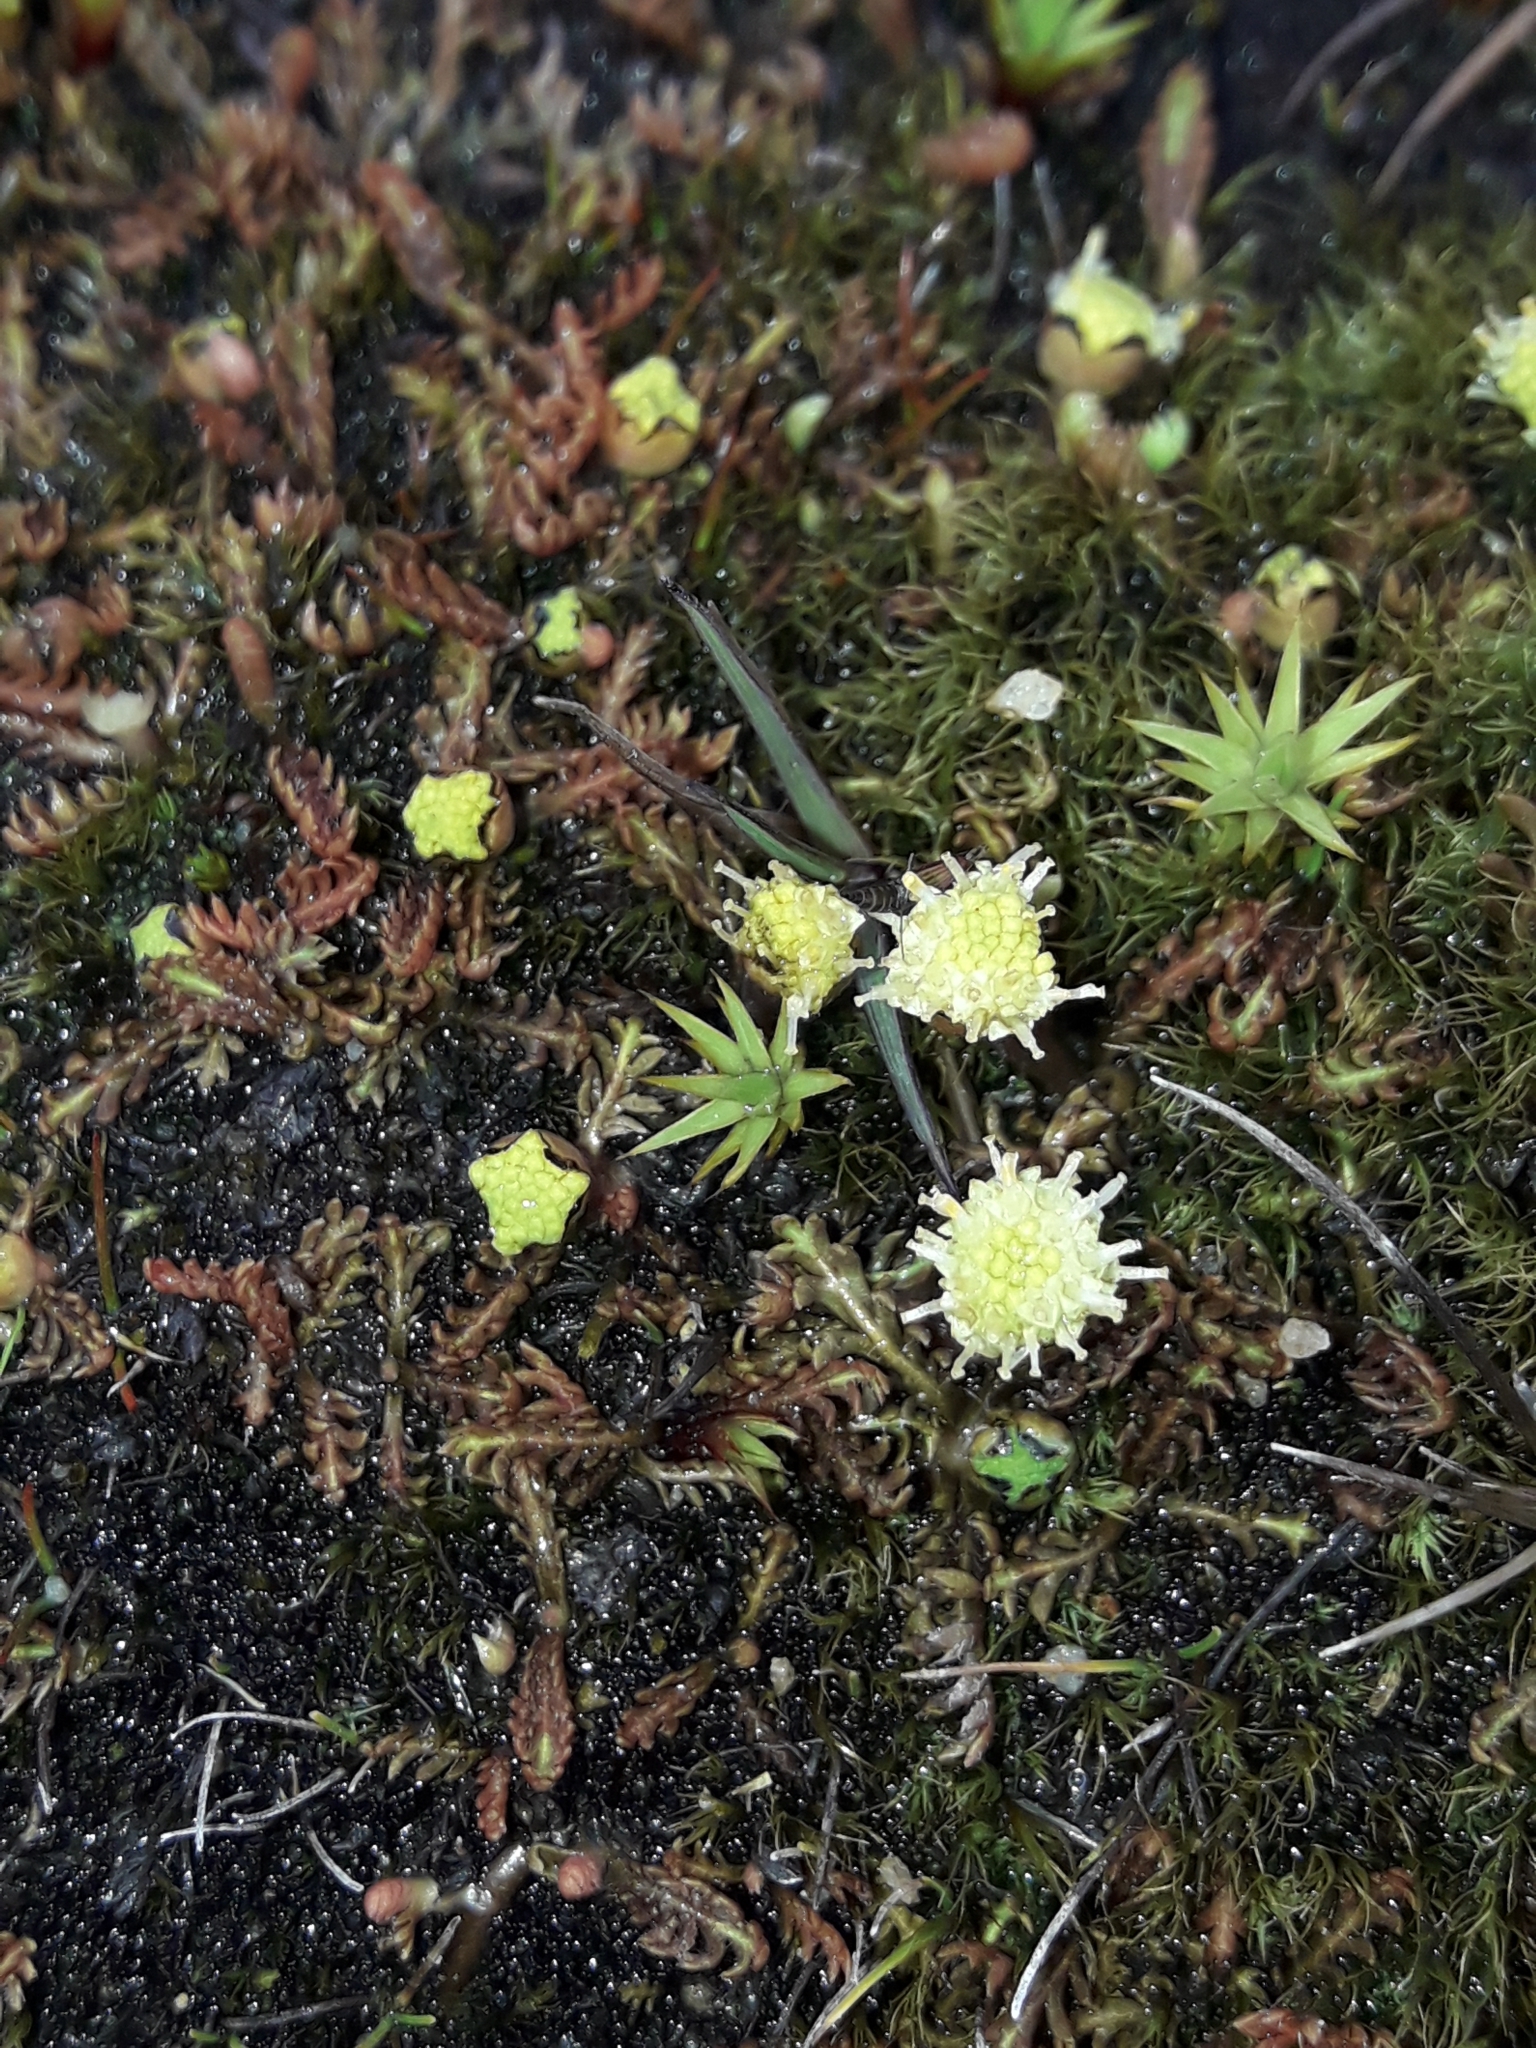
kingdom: Plantae
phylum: Tracheophyta
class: Magnoliopsida
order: Asterales
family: Asteraceae
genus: Leptinella
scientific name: Leptinella pusilla
